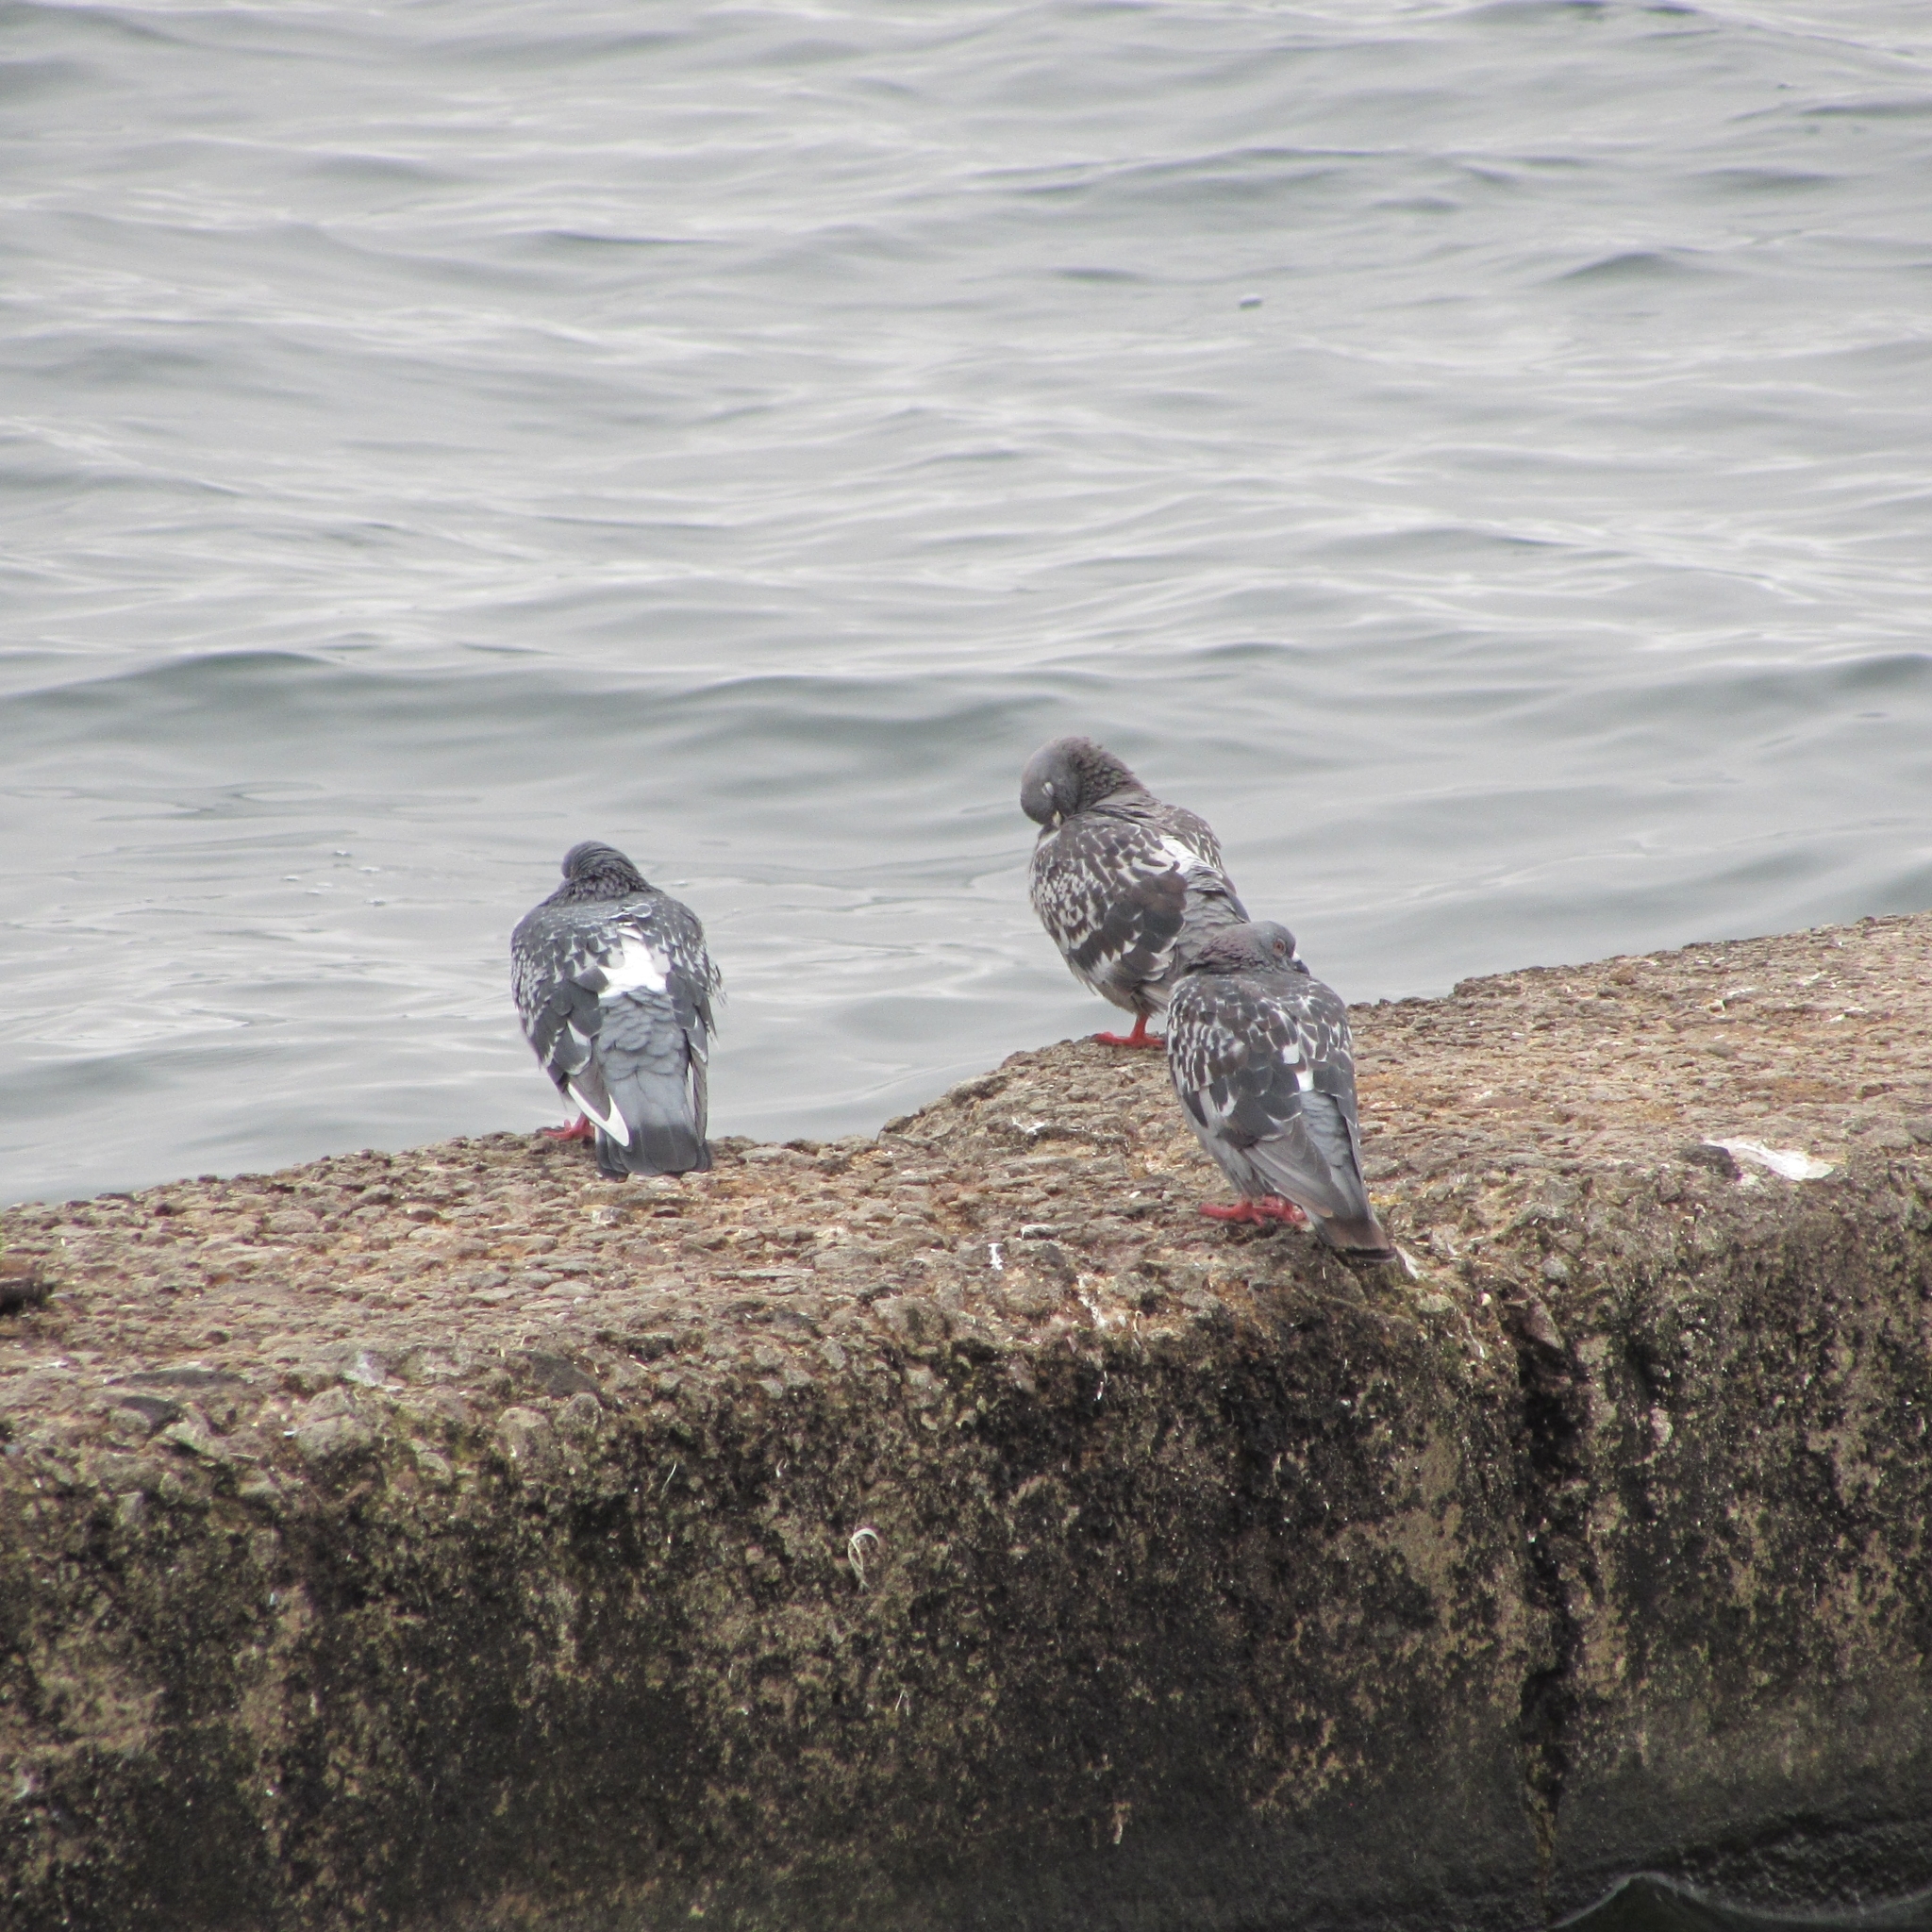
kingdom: Animalia
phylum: Chordata
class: Aves
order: Columbiformes
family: Columbidae
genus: Columba
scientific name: Columba livia
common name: Rock pigeon
